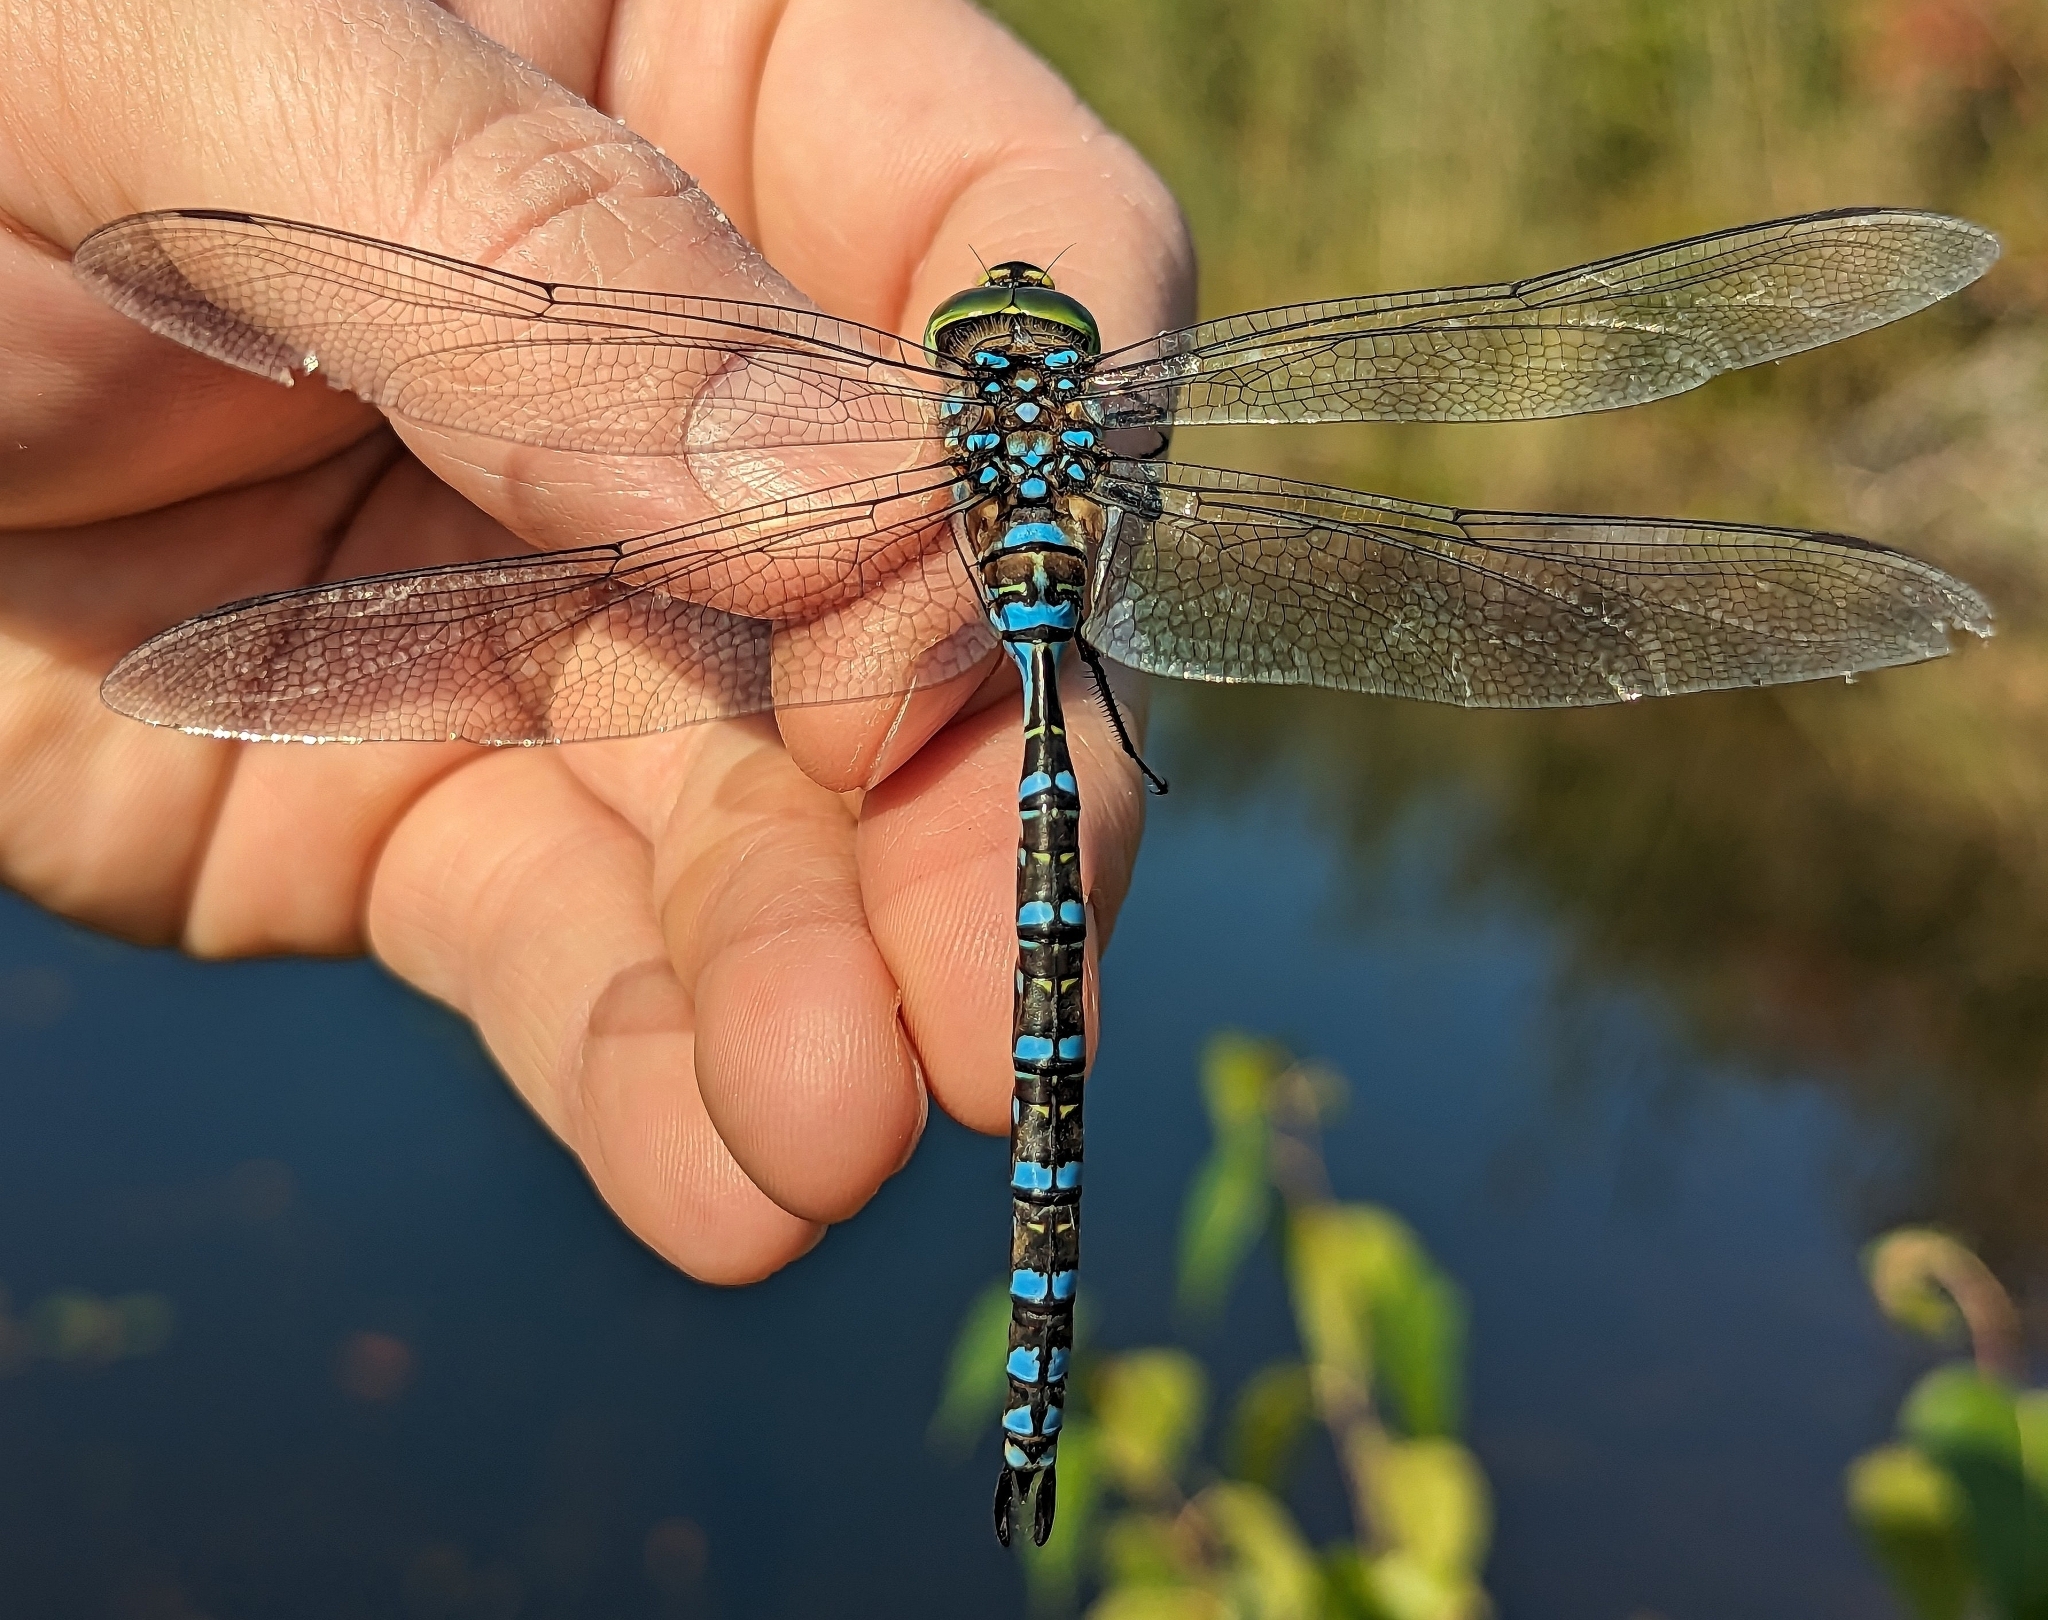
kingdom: Animalia
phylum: Arthropoda
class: Insecta
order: Odonata
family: Aeshnidae
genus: Aeshna
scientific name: Aeshna eremita
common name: Lake darner
